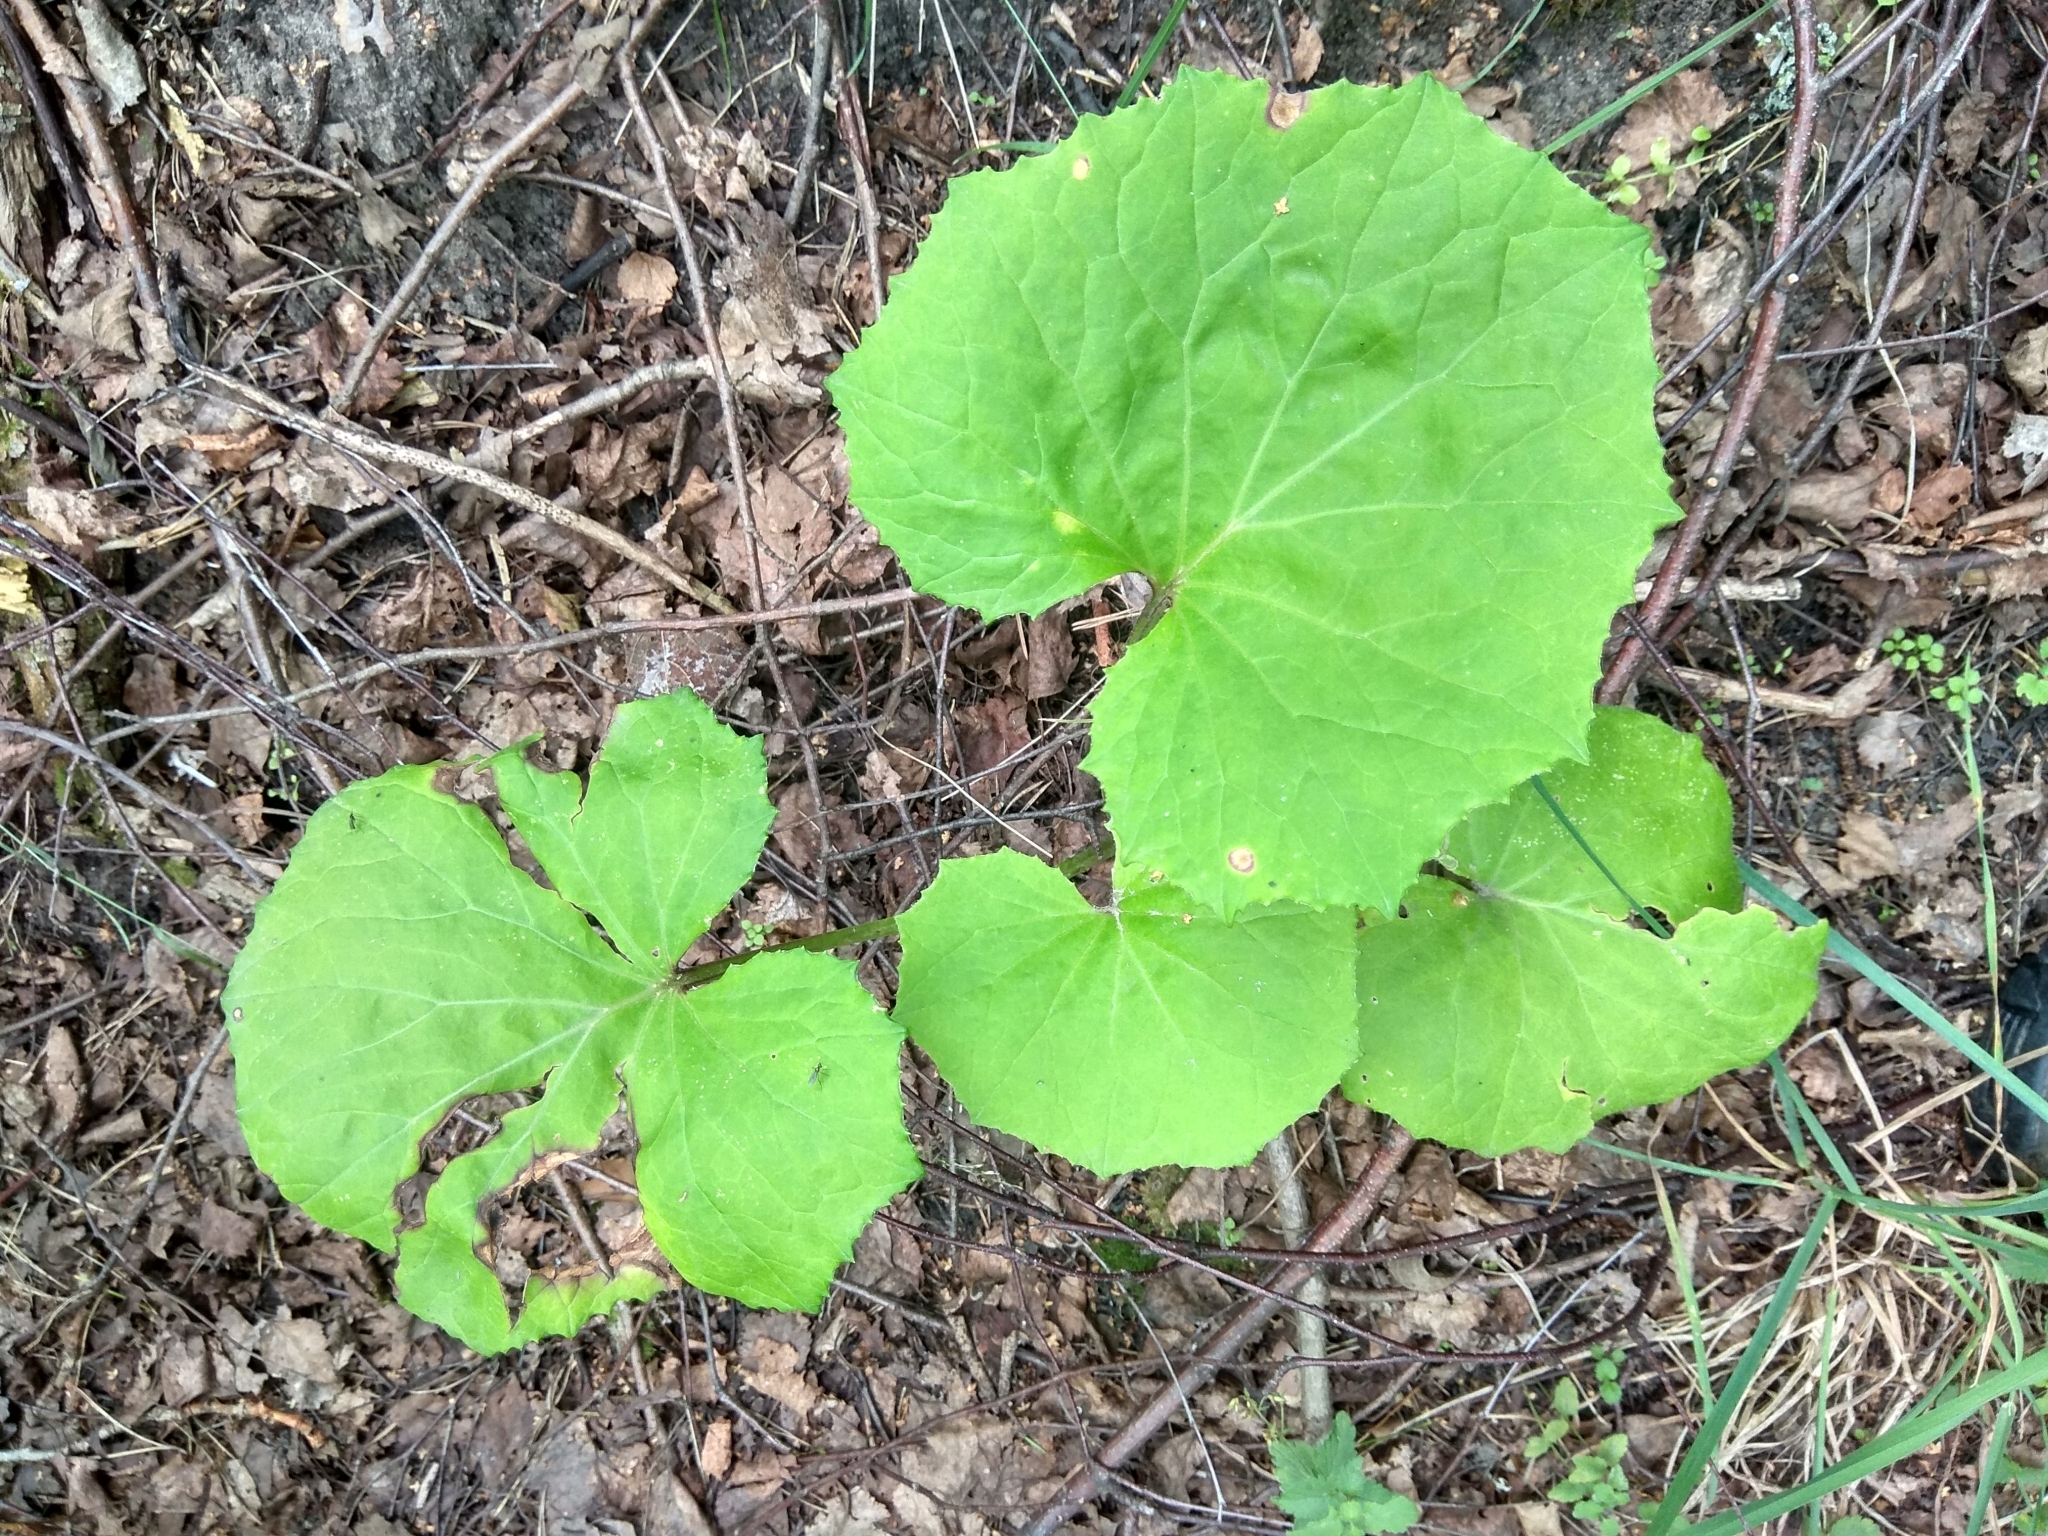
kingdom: Plantae
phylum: Tracheophyta
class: Magnoliopsida
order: Asterales
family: Asteraceae
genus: Tussilago
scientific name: Tussilago farfara
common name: Coltsfoot
